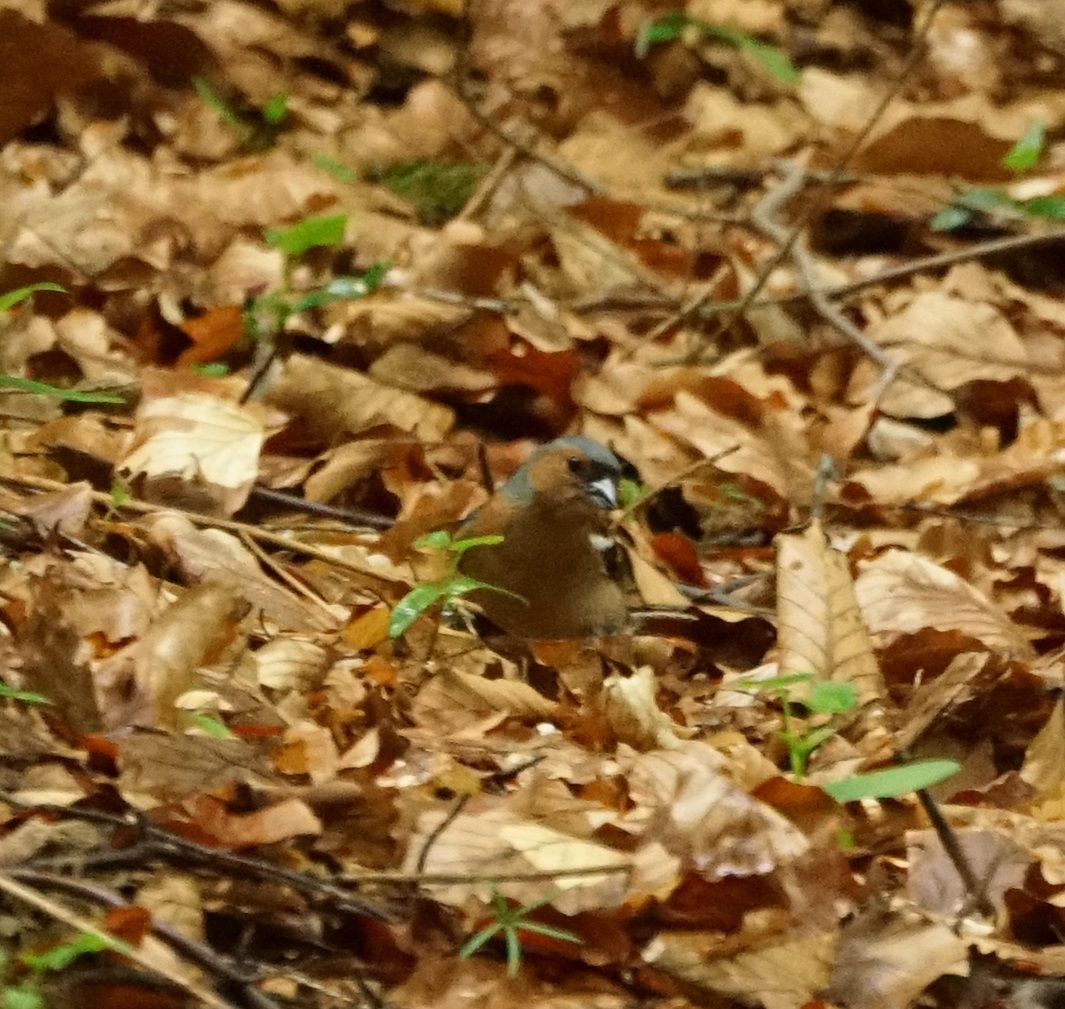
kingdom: Animalia
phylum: Chordata
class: Aves
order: Passeriformes
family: Fringillidae
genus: Fringilla
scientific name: Fringilla coelebs
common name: Common chaffinch
